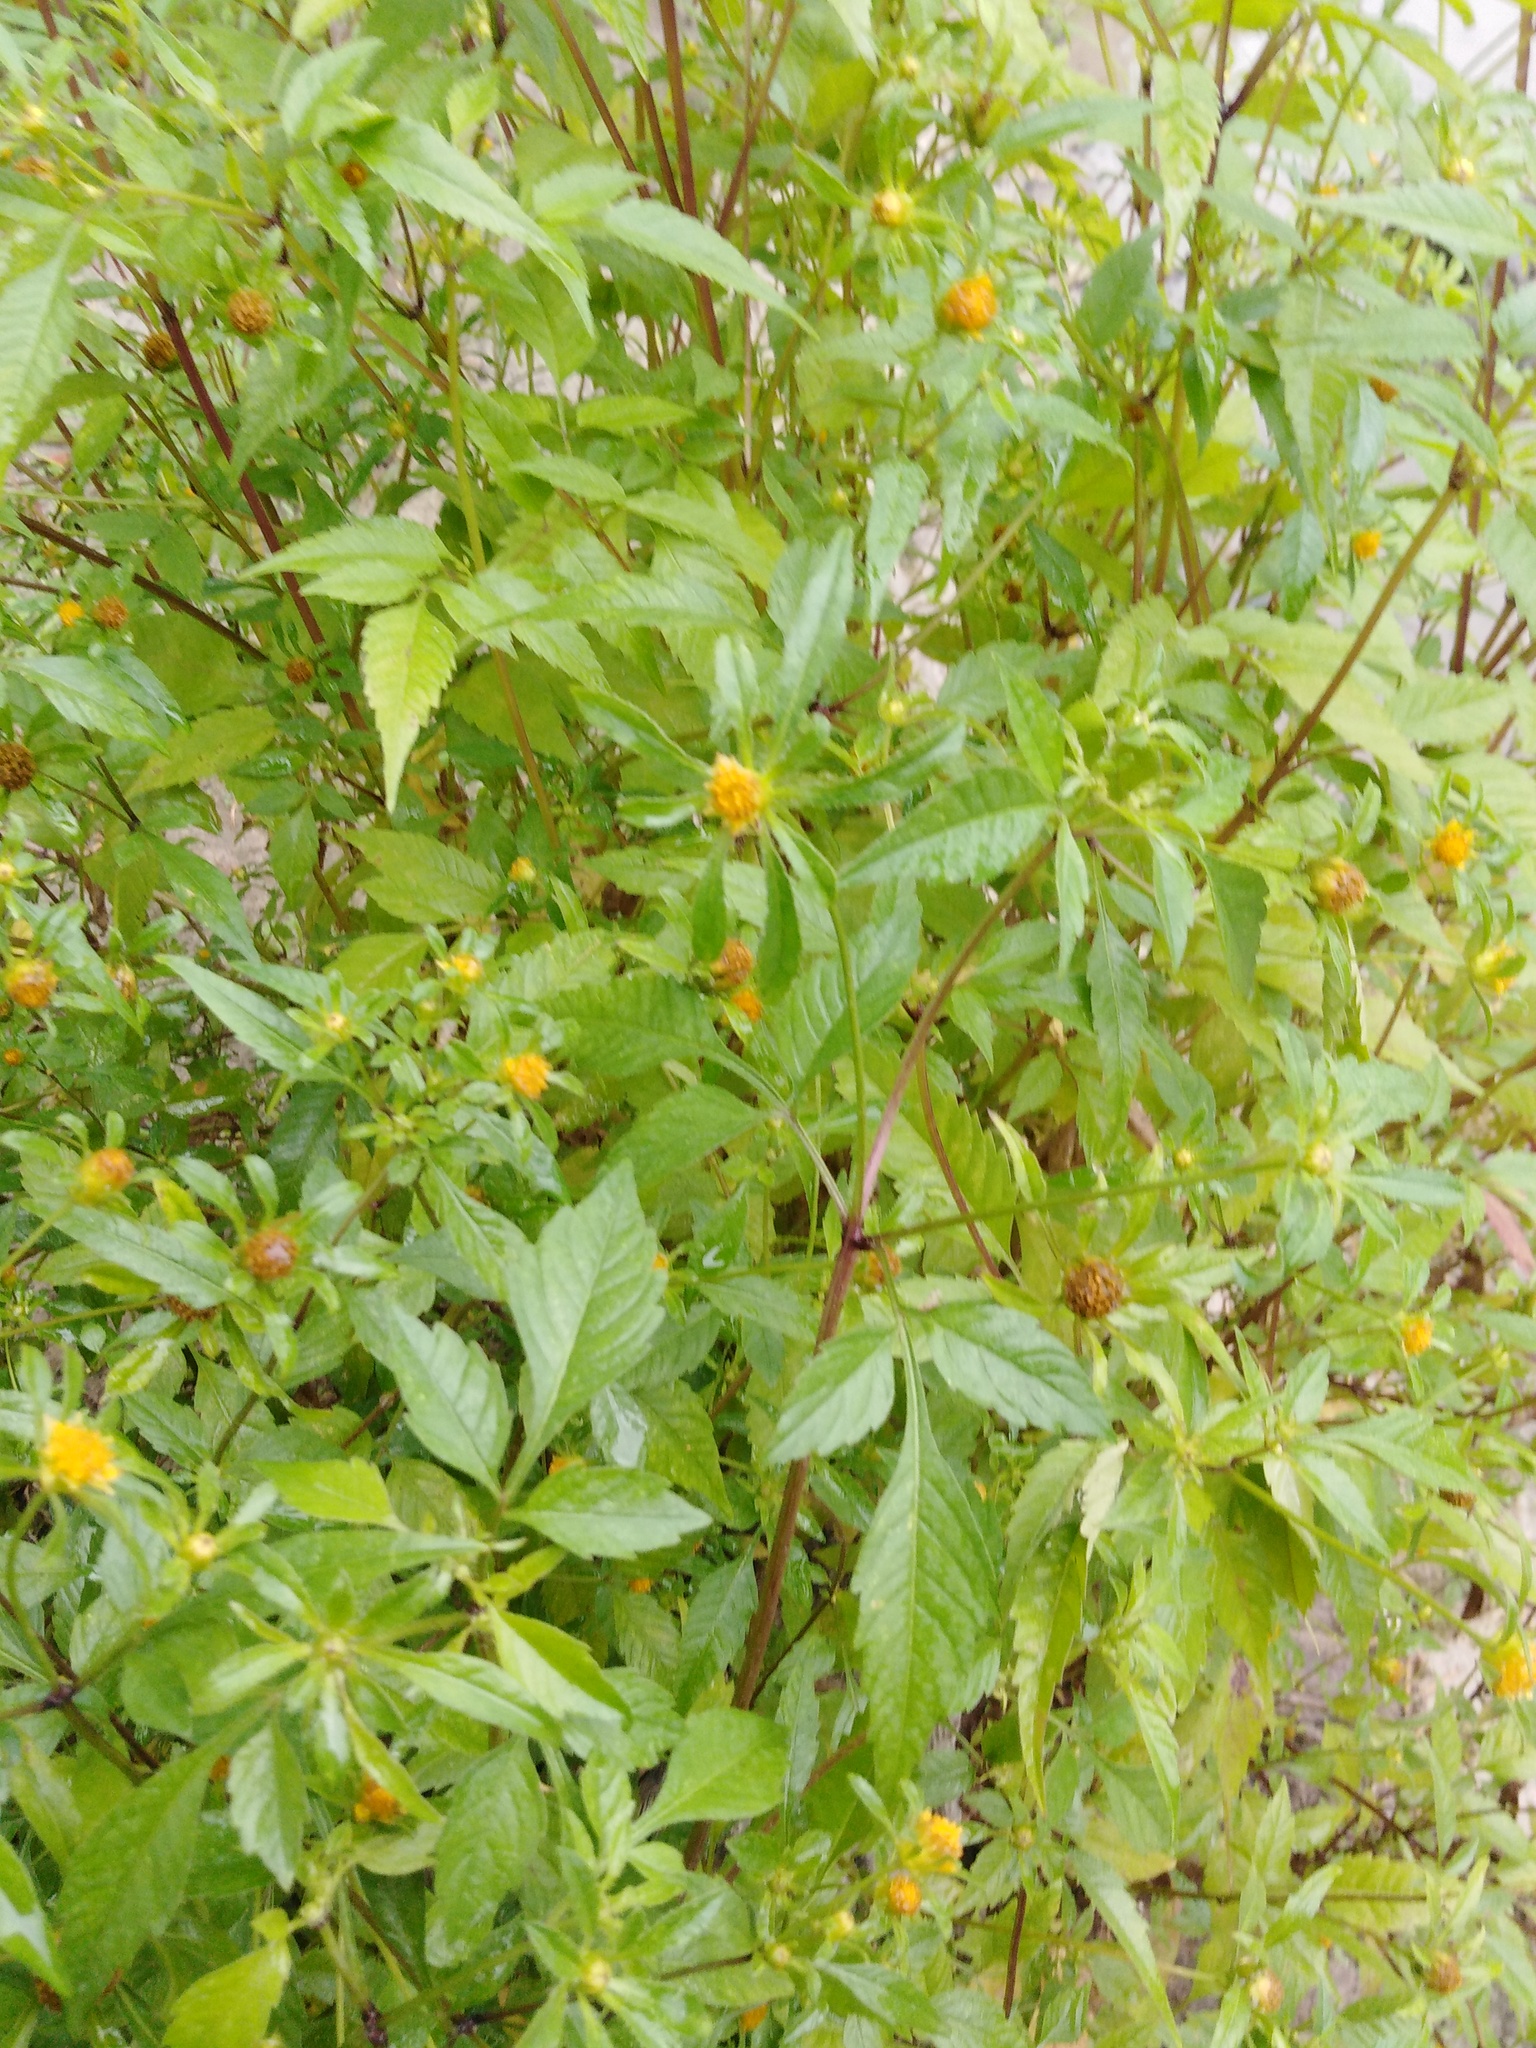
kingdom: Plantae
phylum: Tracheophyta
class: Magnoliopsida
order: Asterales
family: Asteraceae
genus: Bidens
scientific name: Bidens frondosa
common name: Beggarticks
